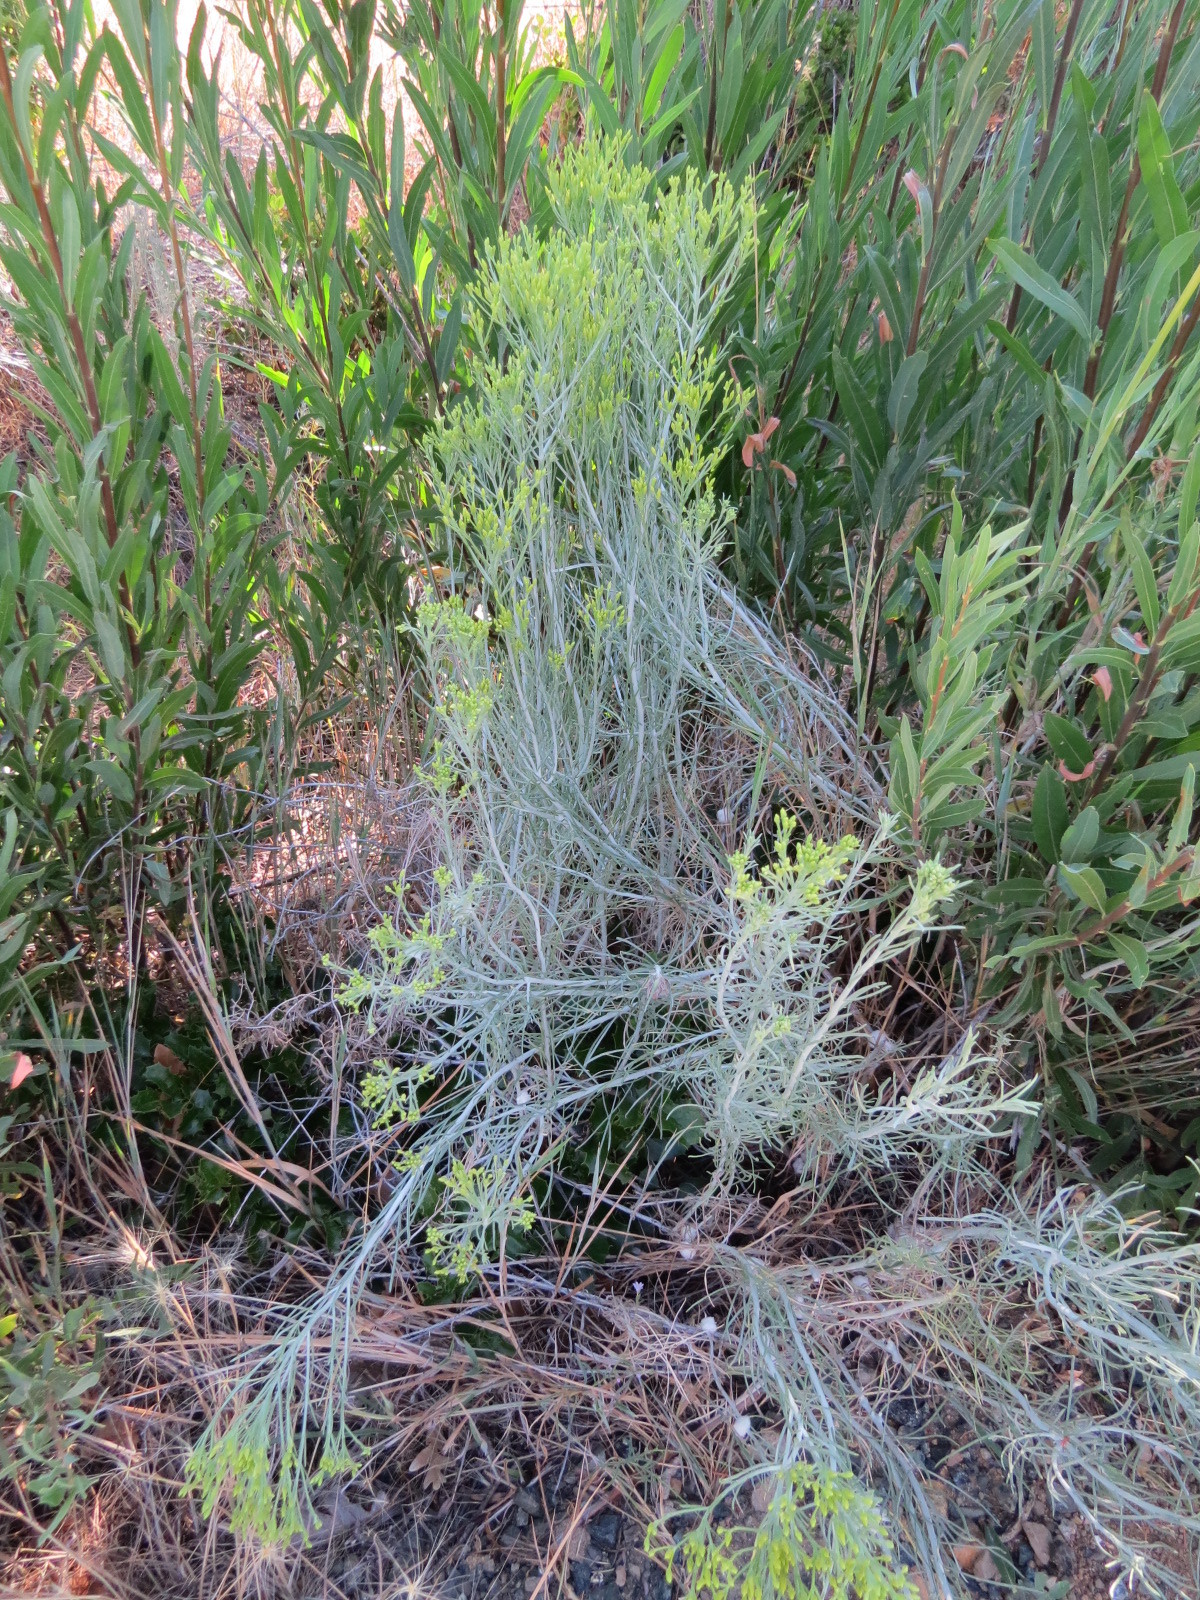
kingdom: Animalia
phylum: Arthropoda
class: Insecta
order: Diptera
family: Tephritidae
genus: Aciurina
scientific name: Aciurina bigeloviae
